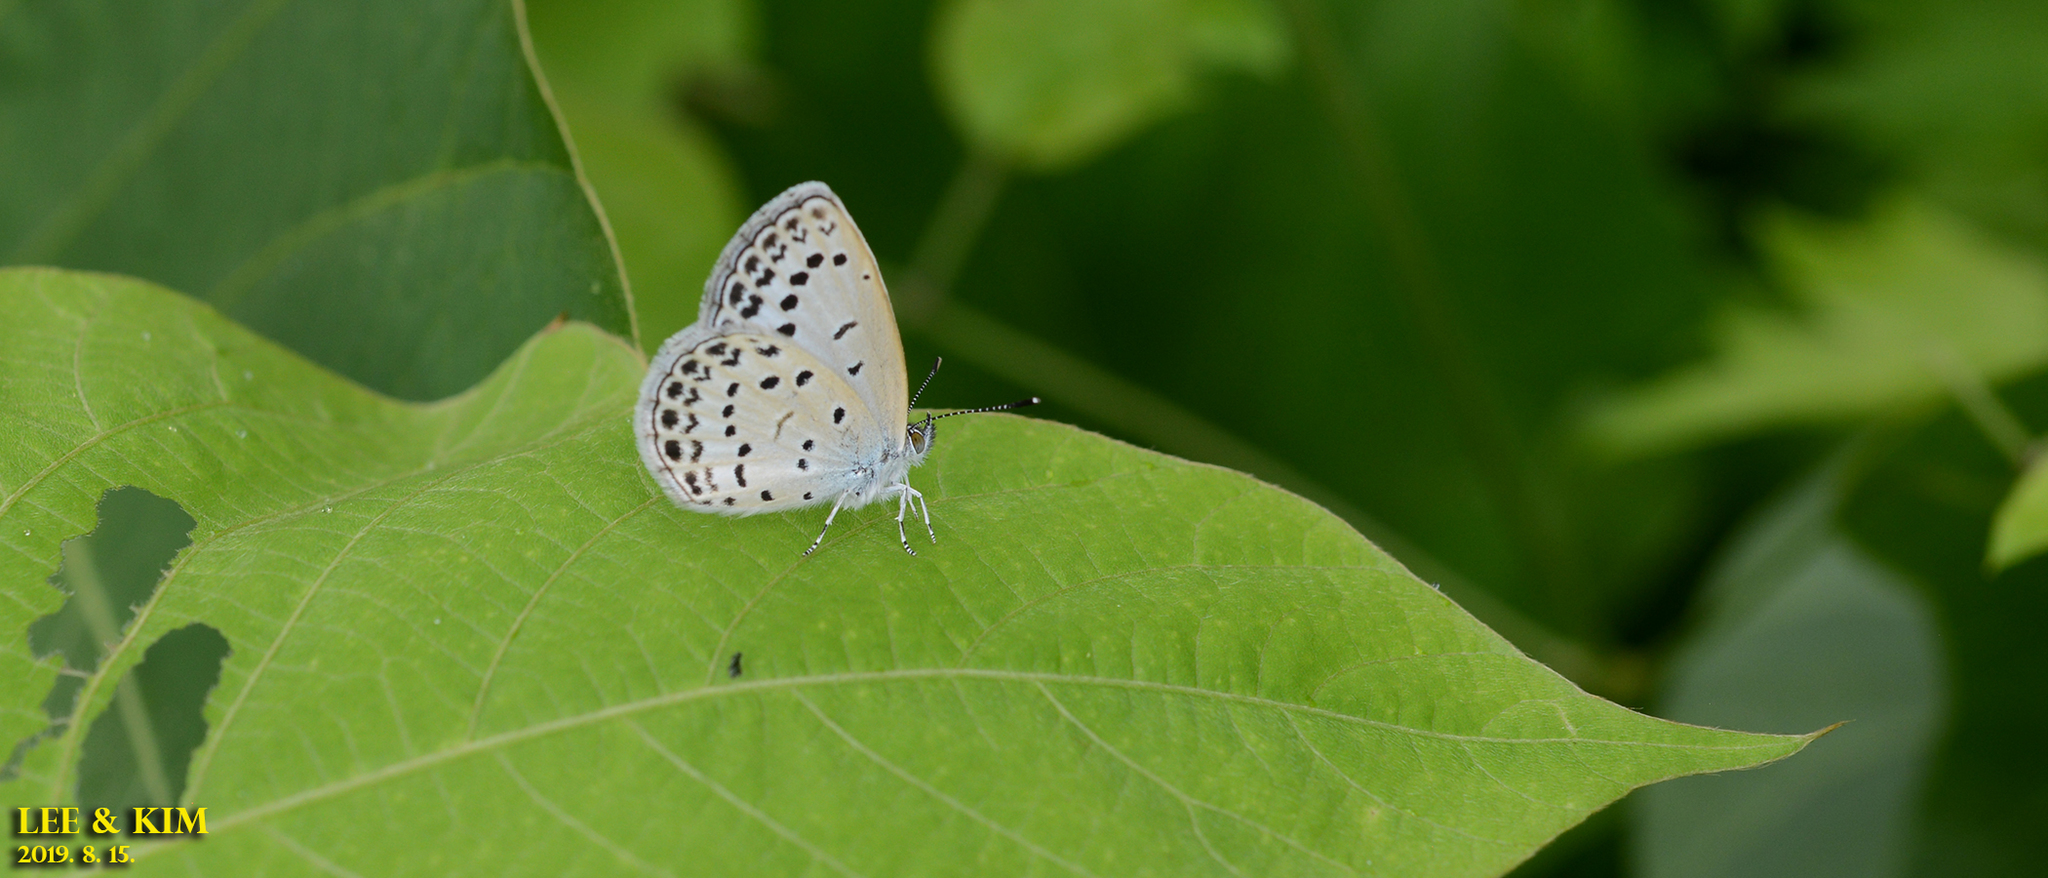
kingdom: Animalia
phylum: Arthropoda
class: Insecta
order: Lepidoptera
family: Lycaenidae
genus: Pseudozizeeria
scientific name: Pseudozizeeria maha
